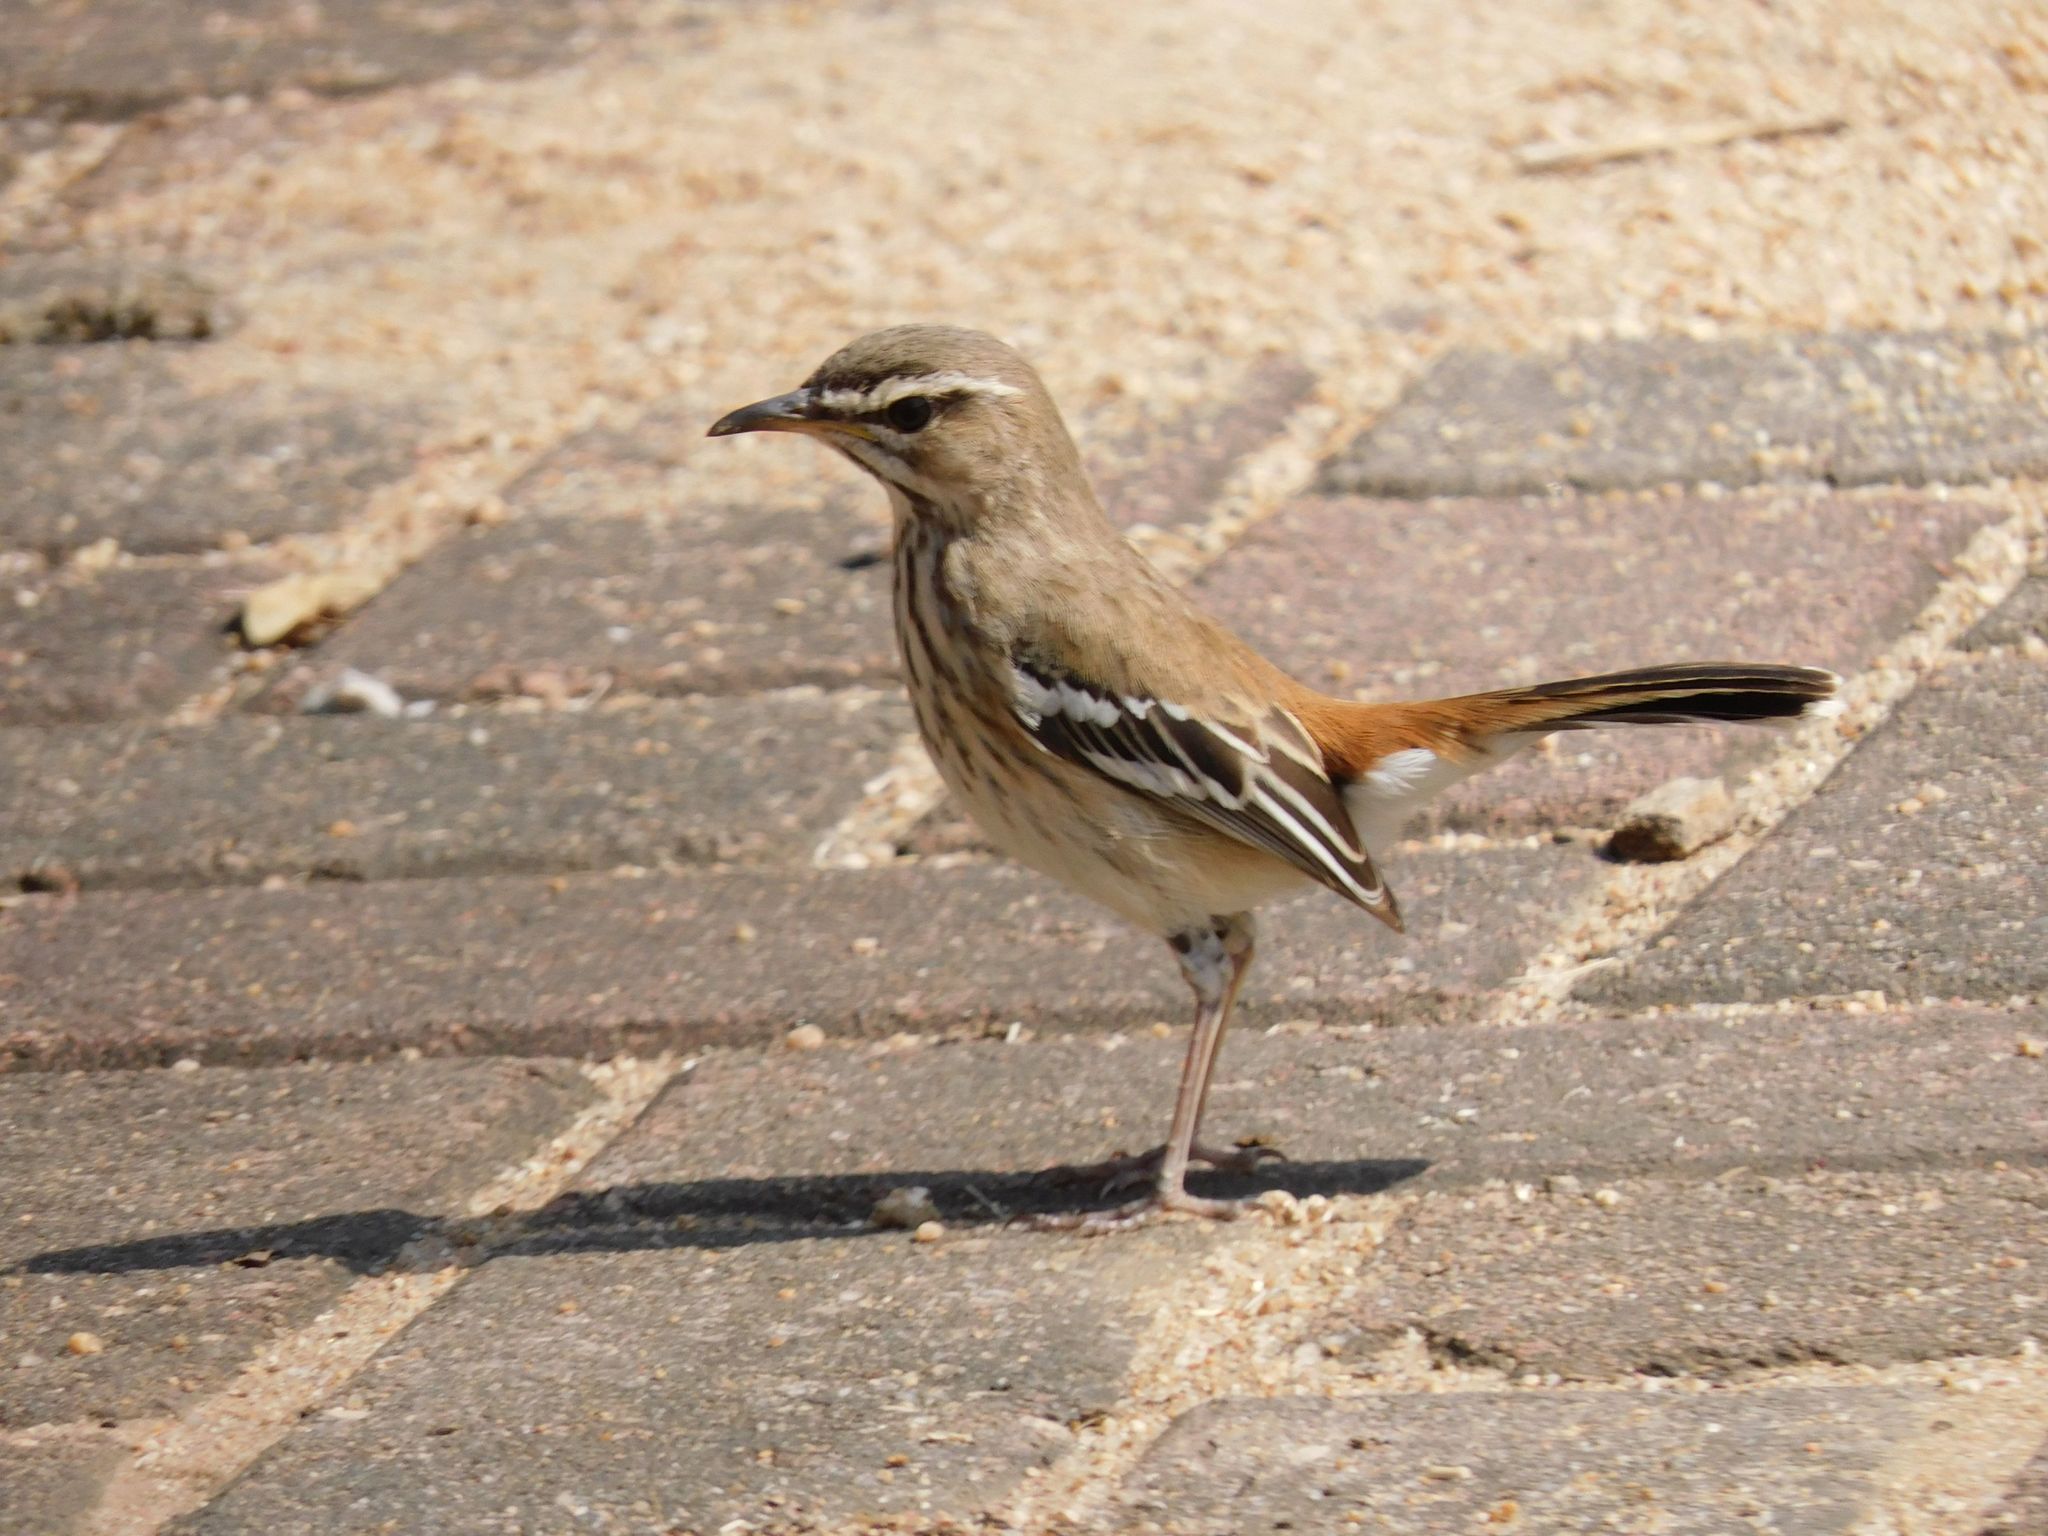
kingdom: Animalia
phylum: Chordata
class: Aves
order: Passeriformes
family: Muscicapidae
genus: Erythropygia
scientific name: Erythropygia leucophrys
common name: White-browed scrub robin
